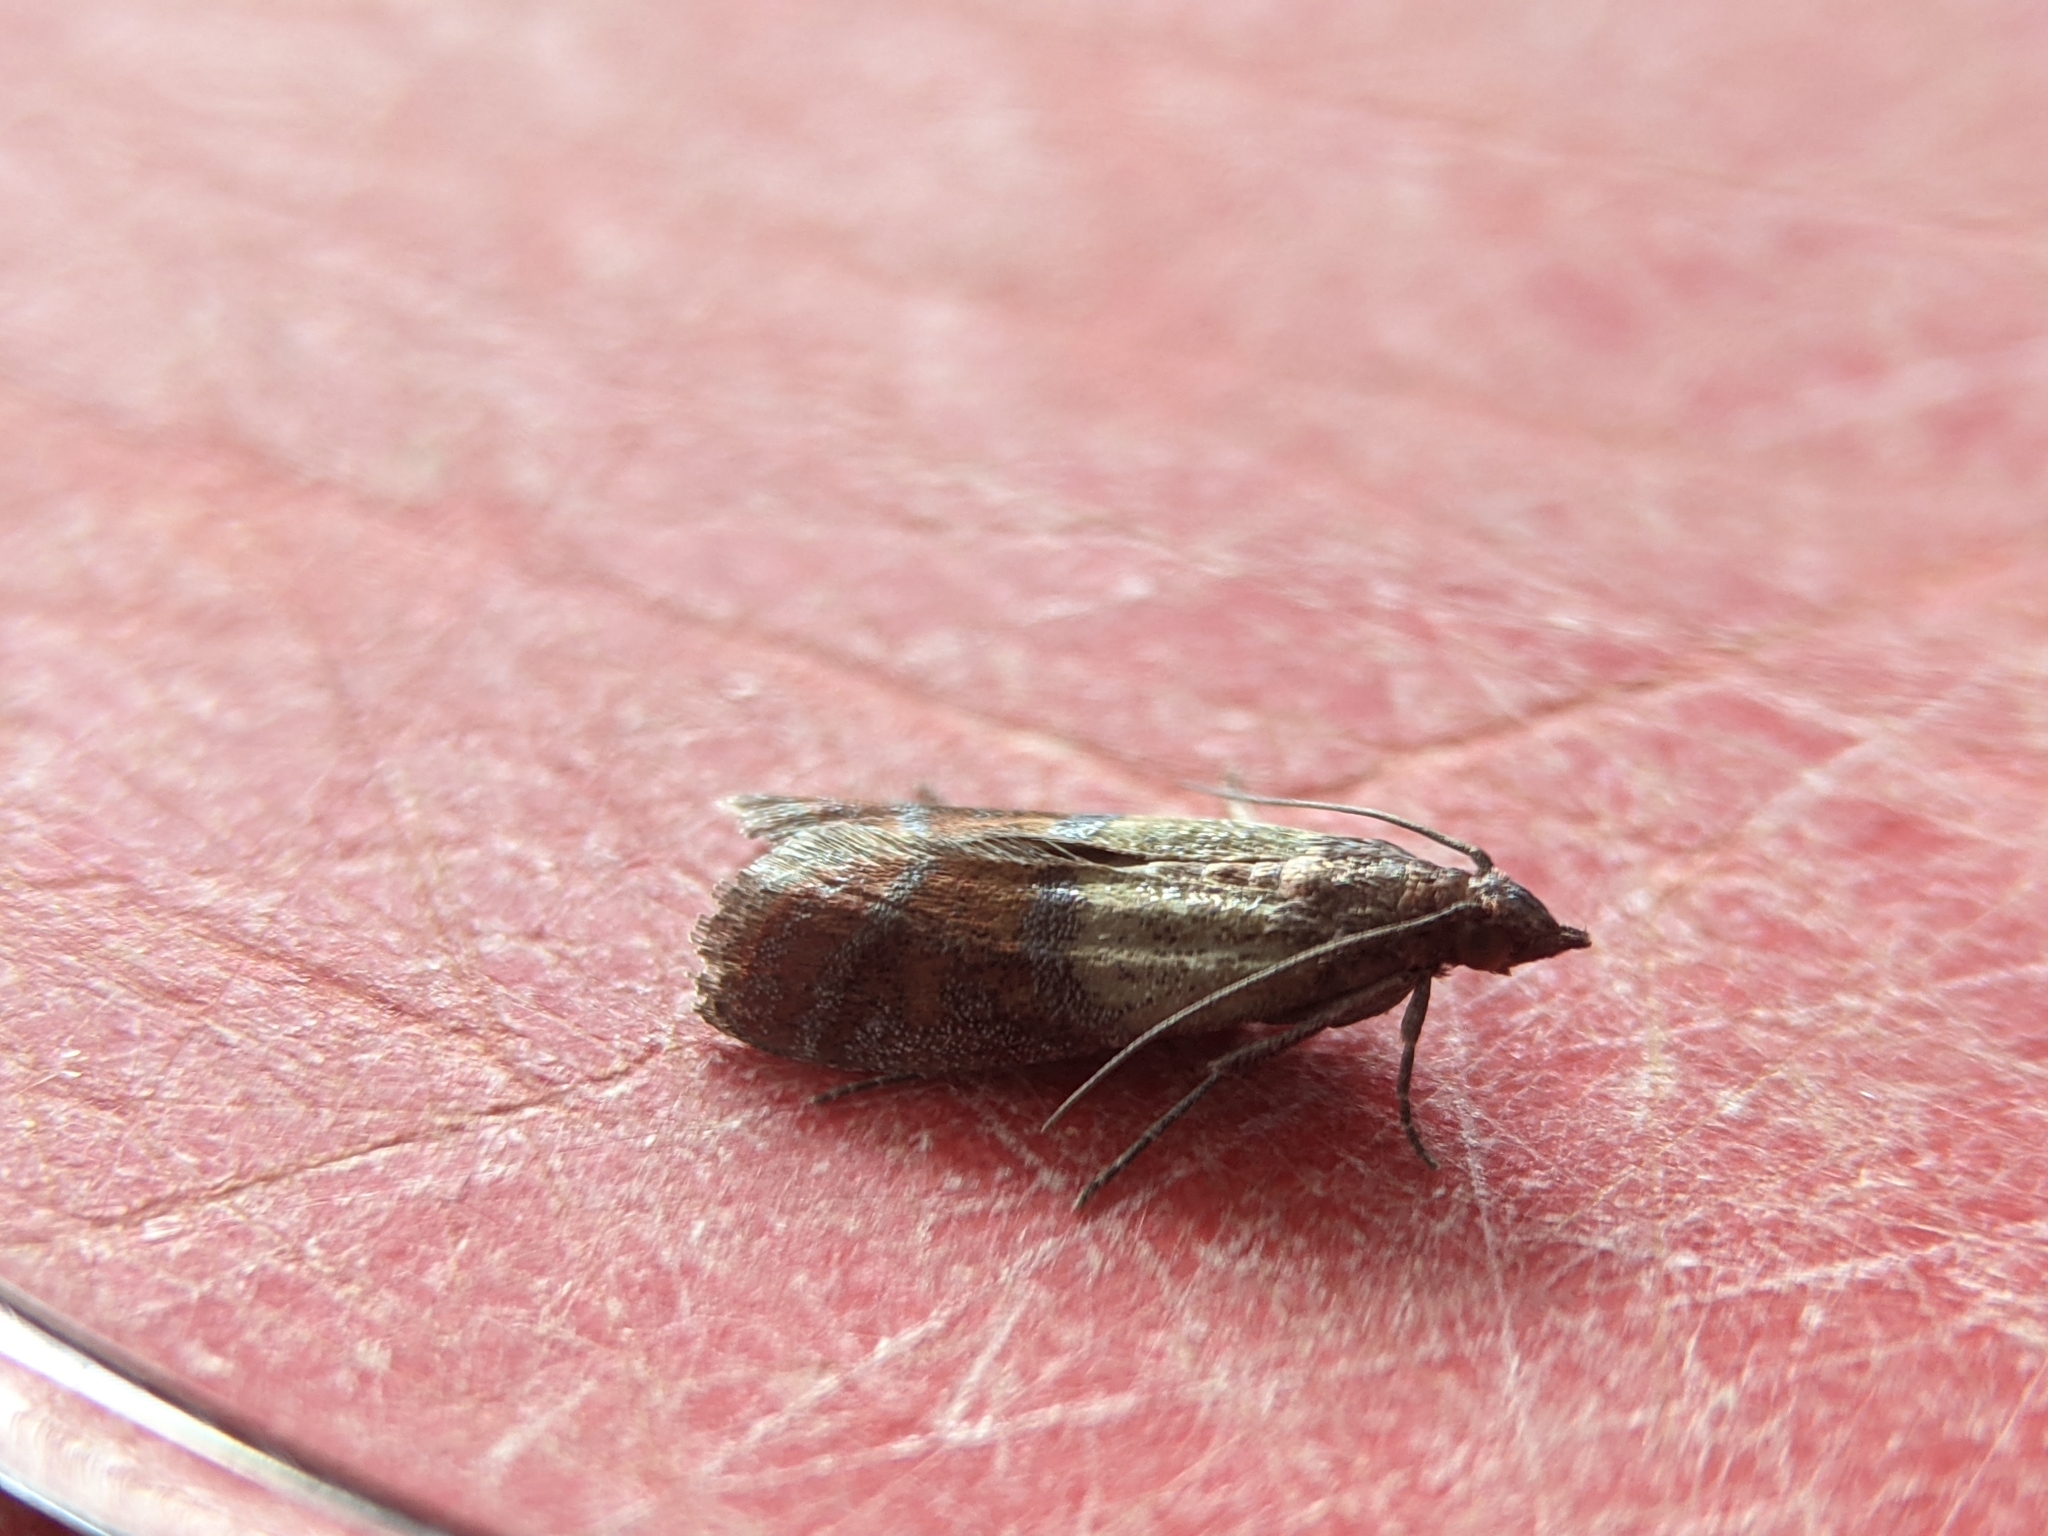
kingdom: Animalia
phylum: Arthropoda
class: Insecta
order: Lepidoptera
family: Pyralidae
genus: Plodia
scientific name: Plodia interpunctella
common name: Indian meal moth
